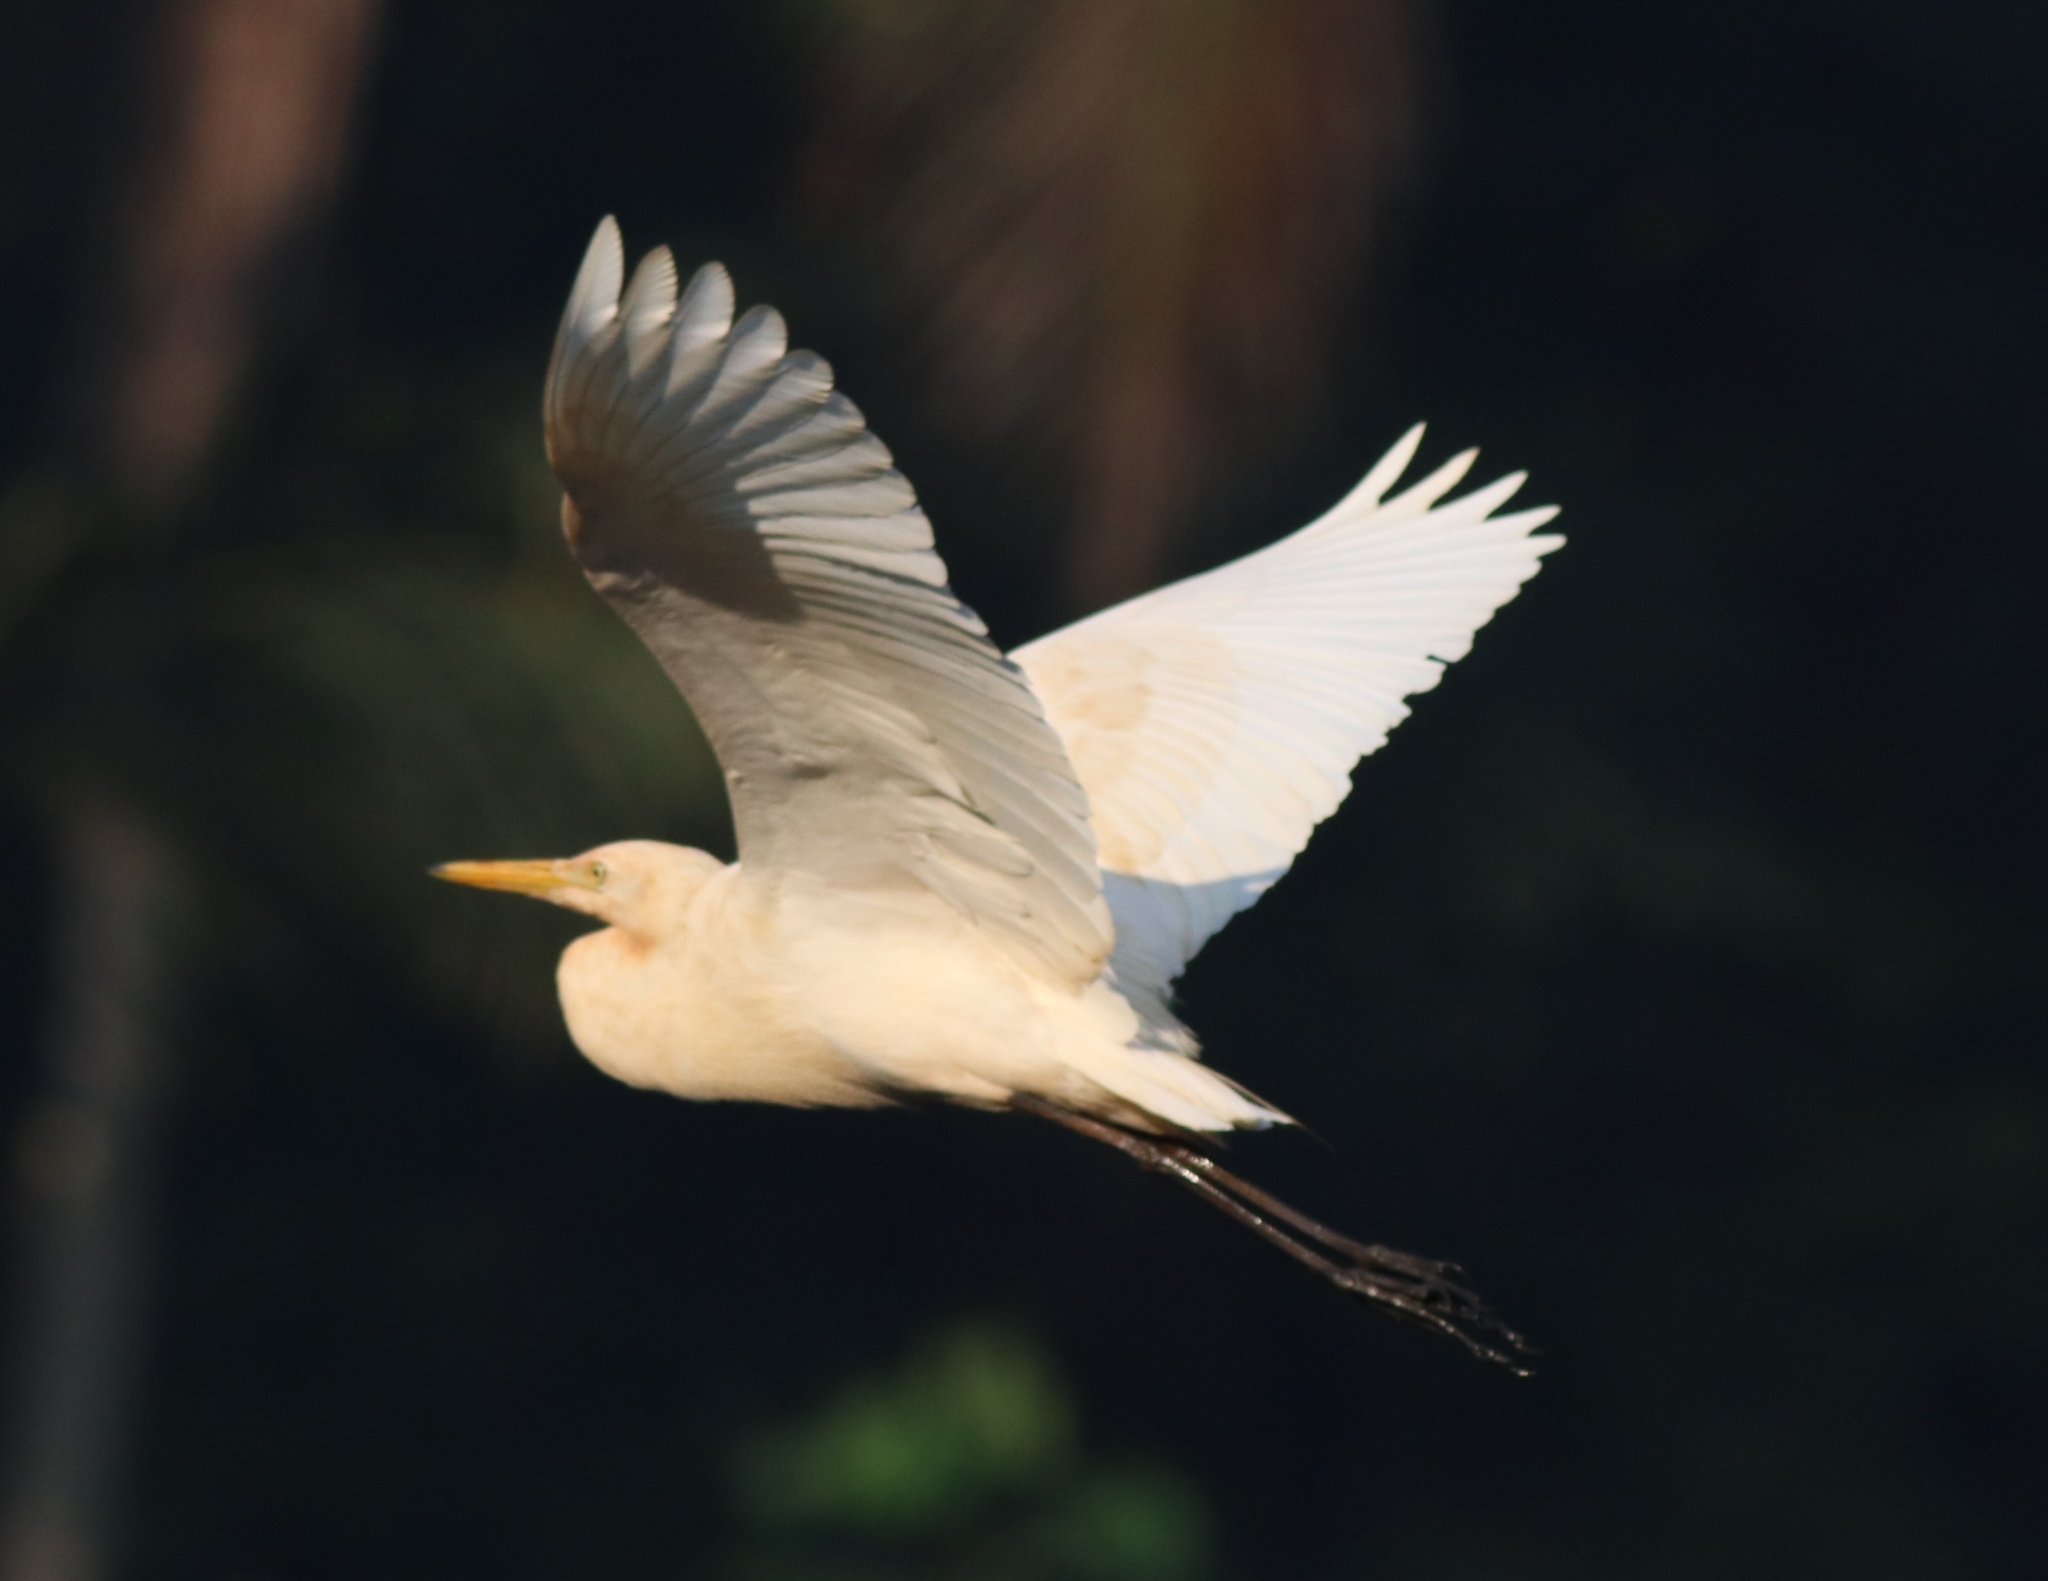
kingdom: Animalia
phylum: Chordata
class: Aves
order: Pelecaniformes
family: Ardeidae
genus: Bubulcus
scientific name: Bubulcus coromandus
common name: Eastern cattle egret
